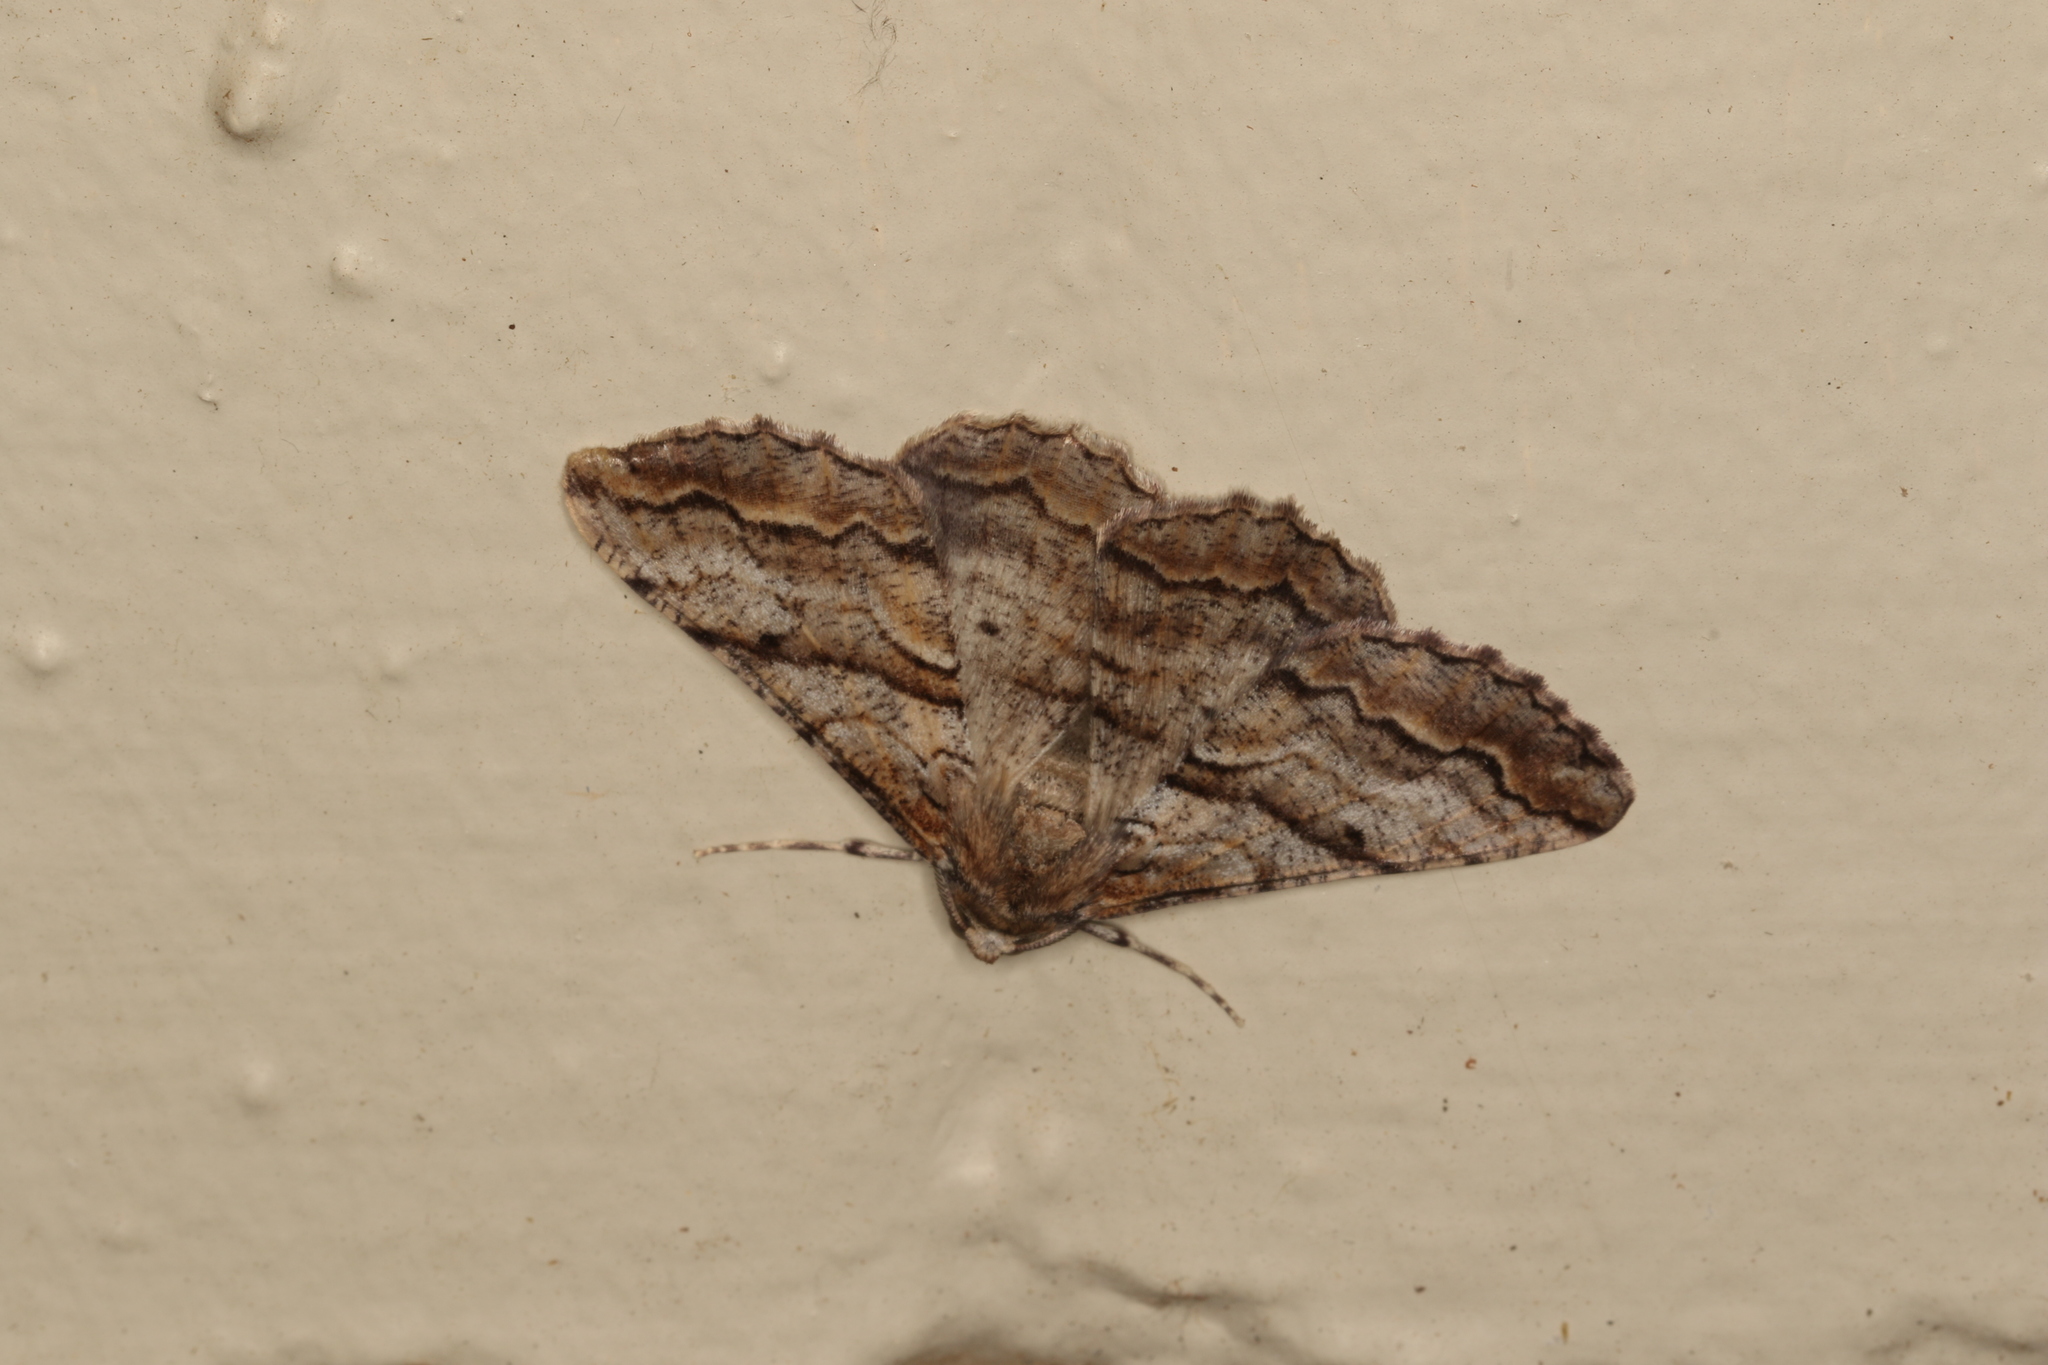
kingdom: Animalia
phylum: Arthropoda
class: Insecta
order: Lepidoptera
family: Geometridae
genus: Gastrinodes
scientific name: Gastrinodes bitaeniaria
